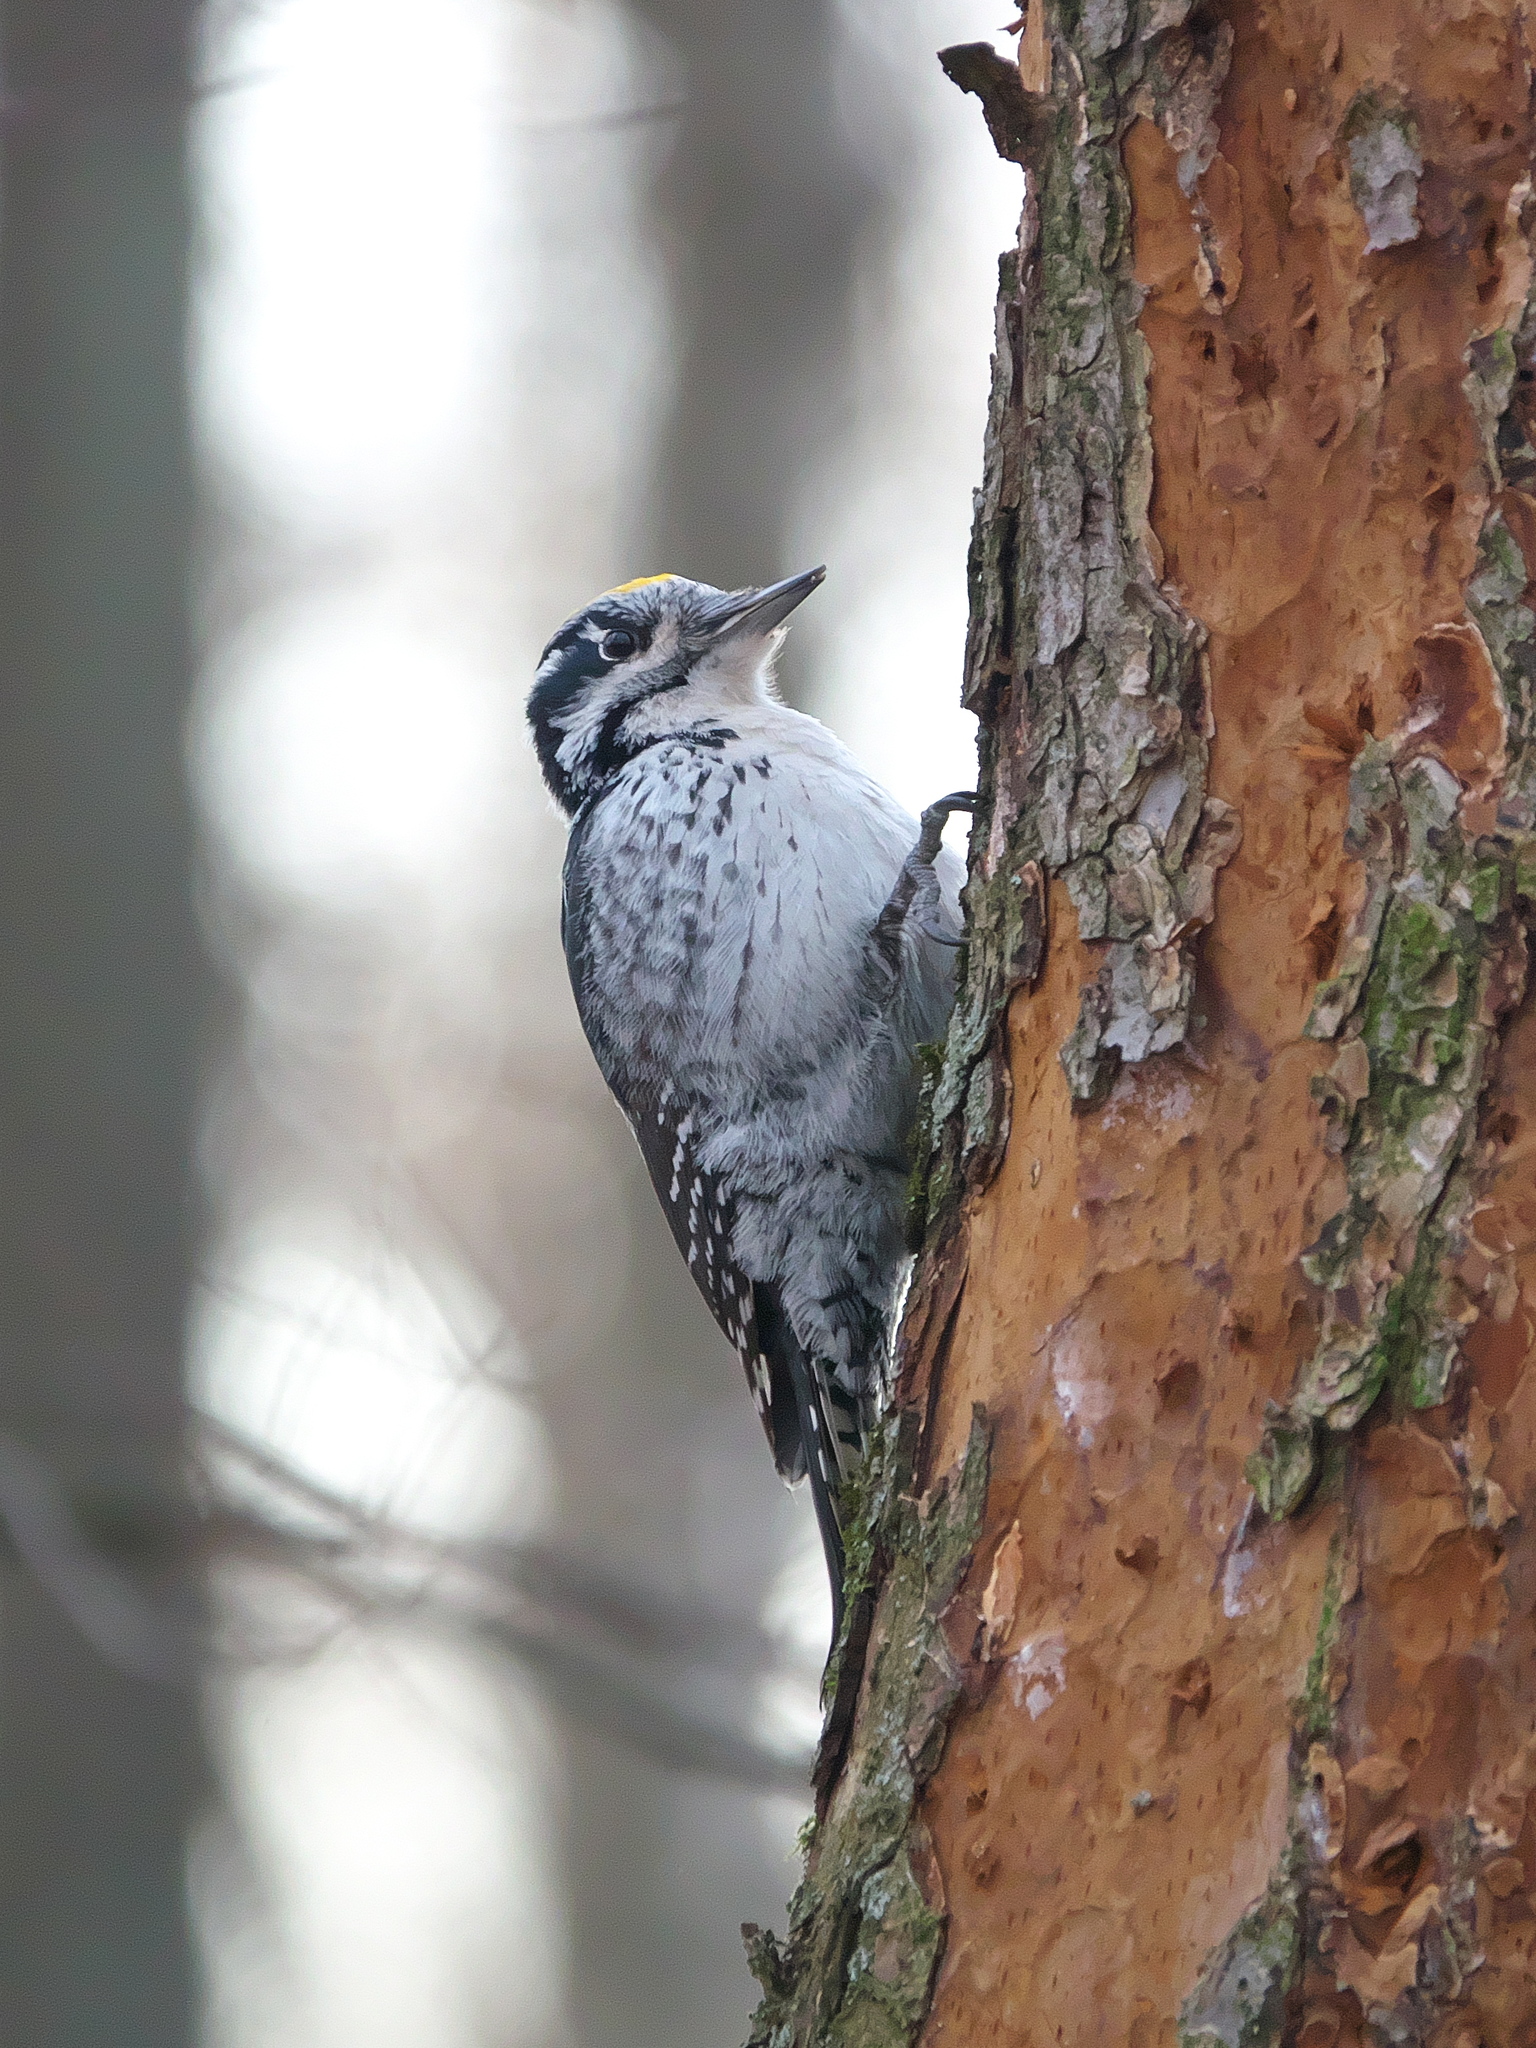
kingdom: Animalia
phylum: Chordata
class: Aves
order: Piciformes
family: Picidae
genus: Picoides
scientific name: Picoides tridactylus
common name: Eurasian three-toed woodpecker
